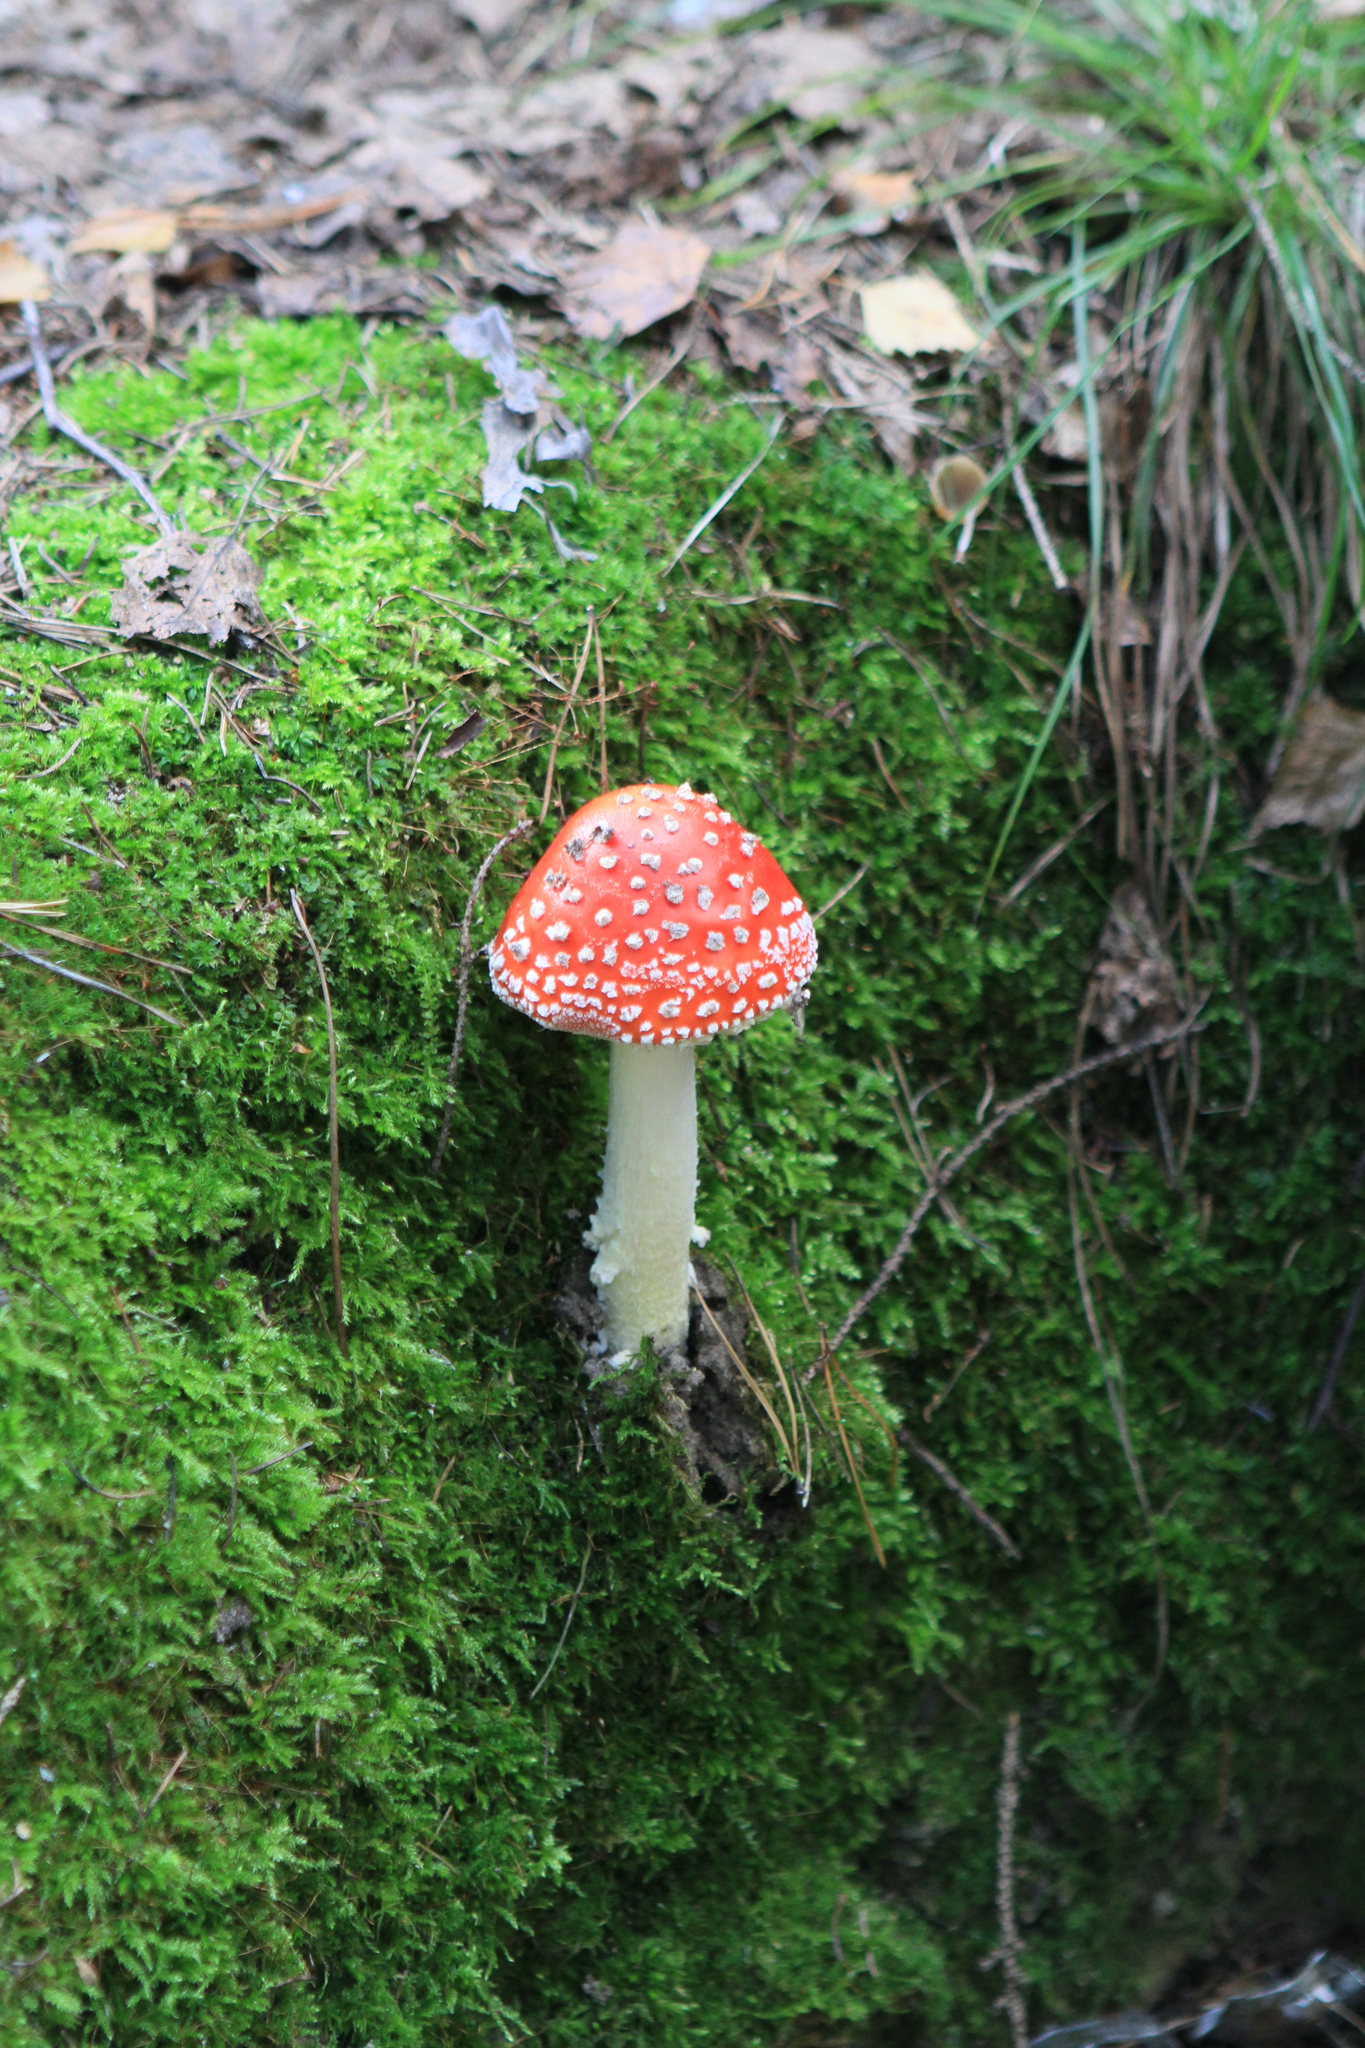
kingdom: Fungi
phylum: Basidiomycota
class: Agaricomycetes
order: Agaricales
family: Amanitaceae
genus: Amanita
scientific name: Amanita muscaria
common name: Fly agaric
